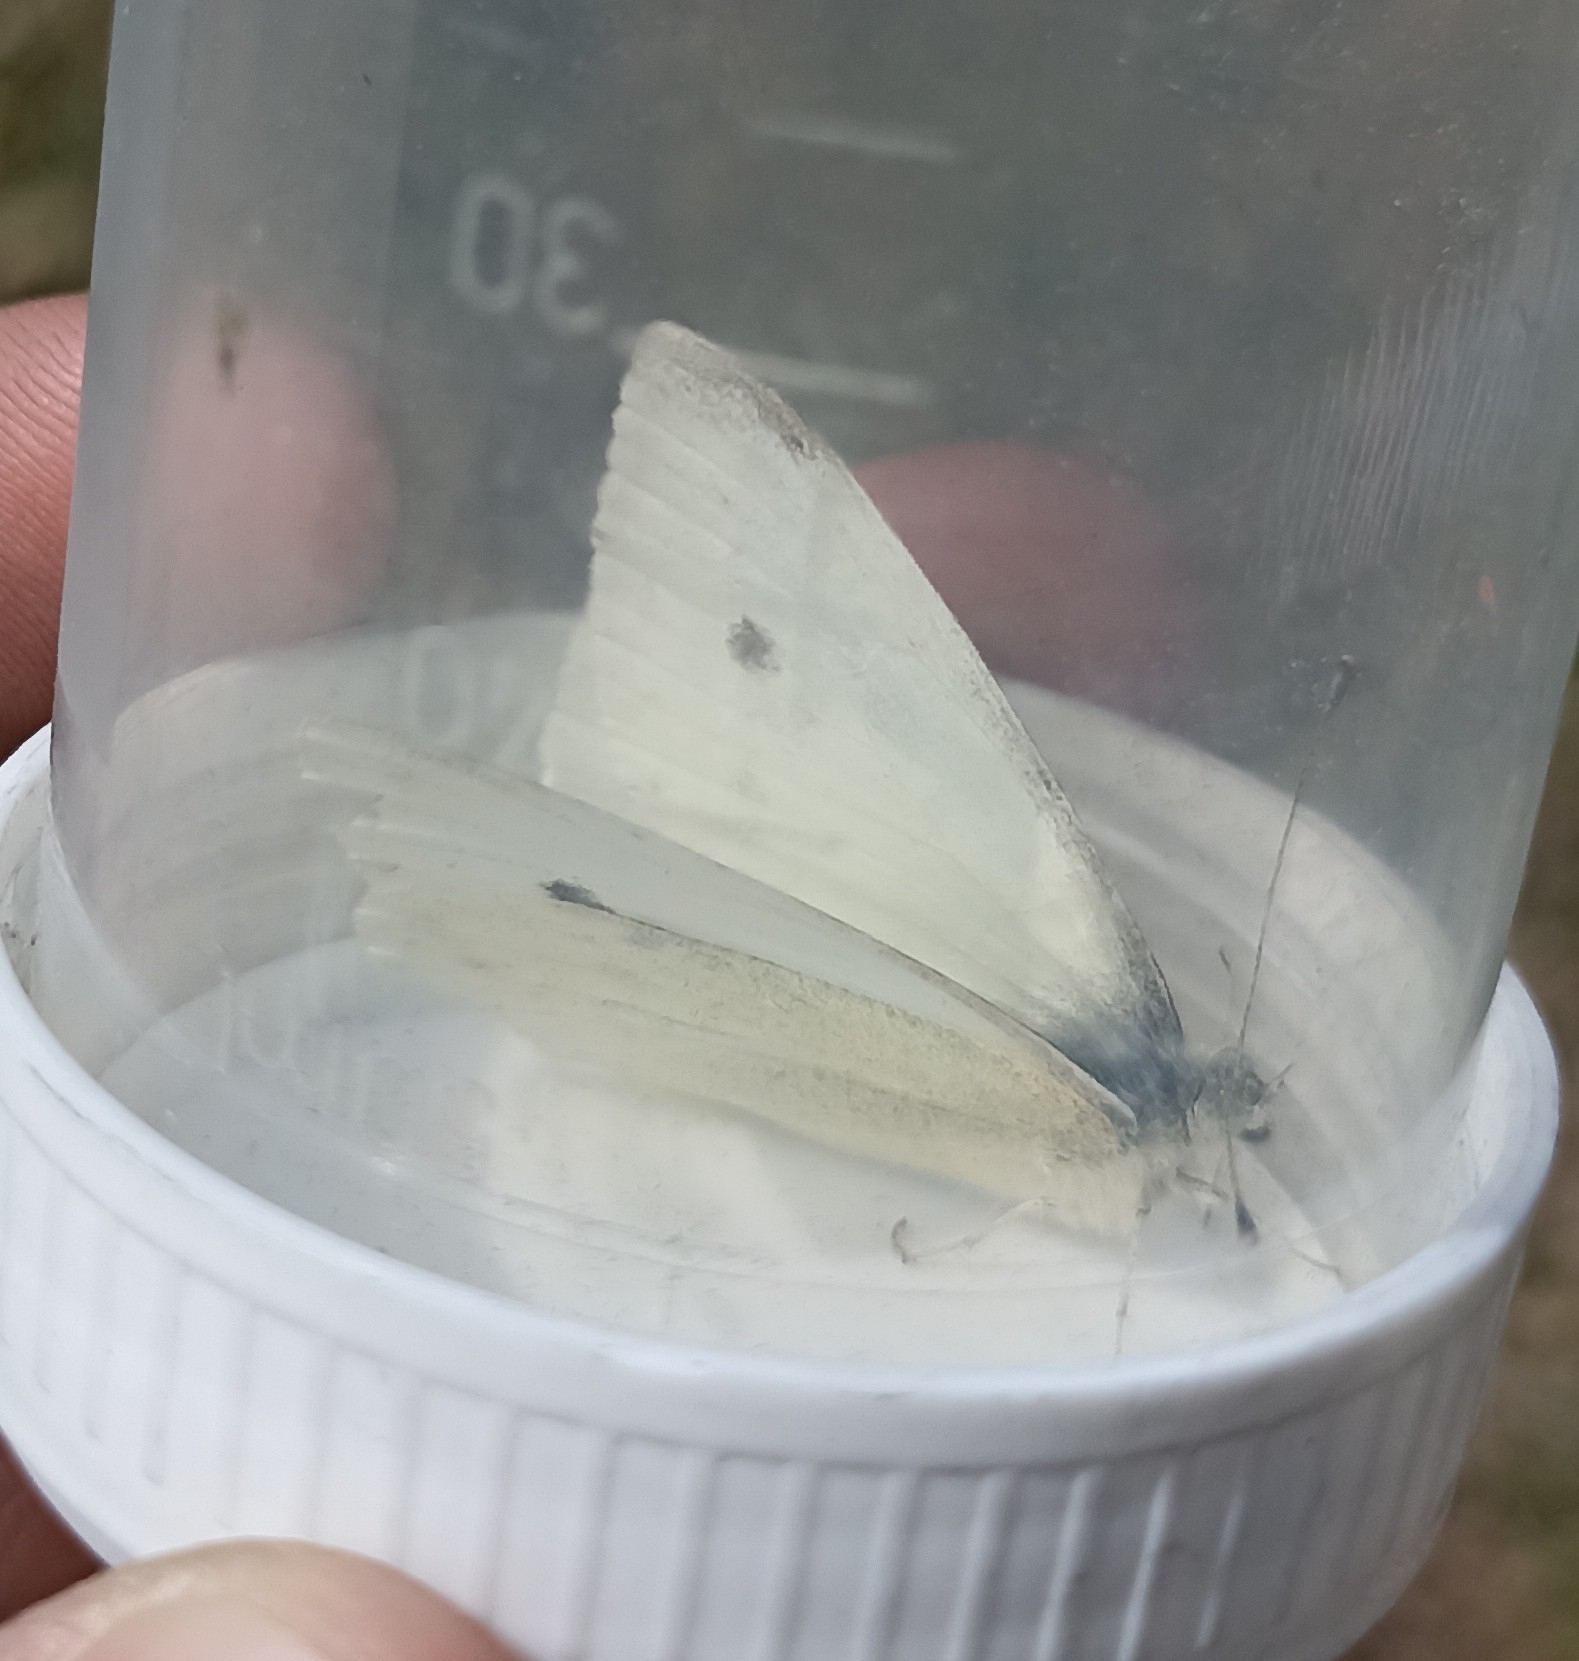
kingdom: Animalia
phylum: Arthropoda
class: Insecta
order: Lepidoptera
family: Pieridae
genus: Pieris
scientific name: Pieris rapae
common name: Small white
